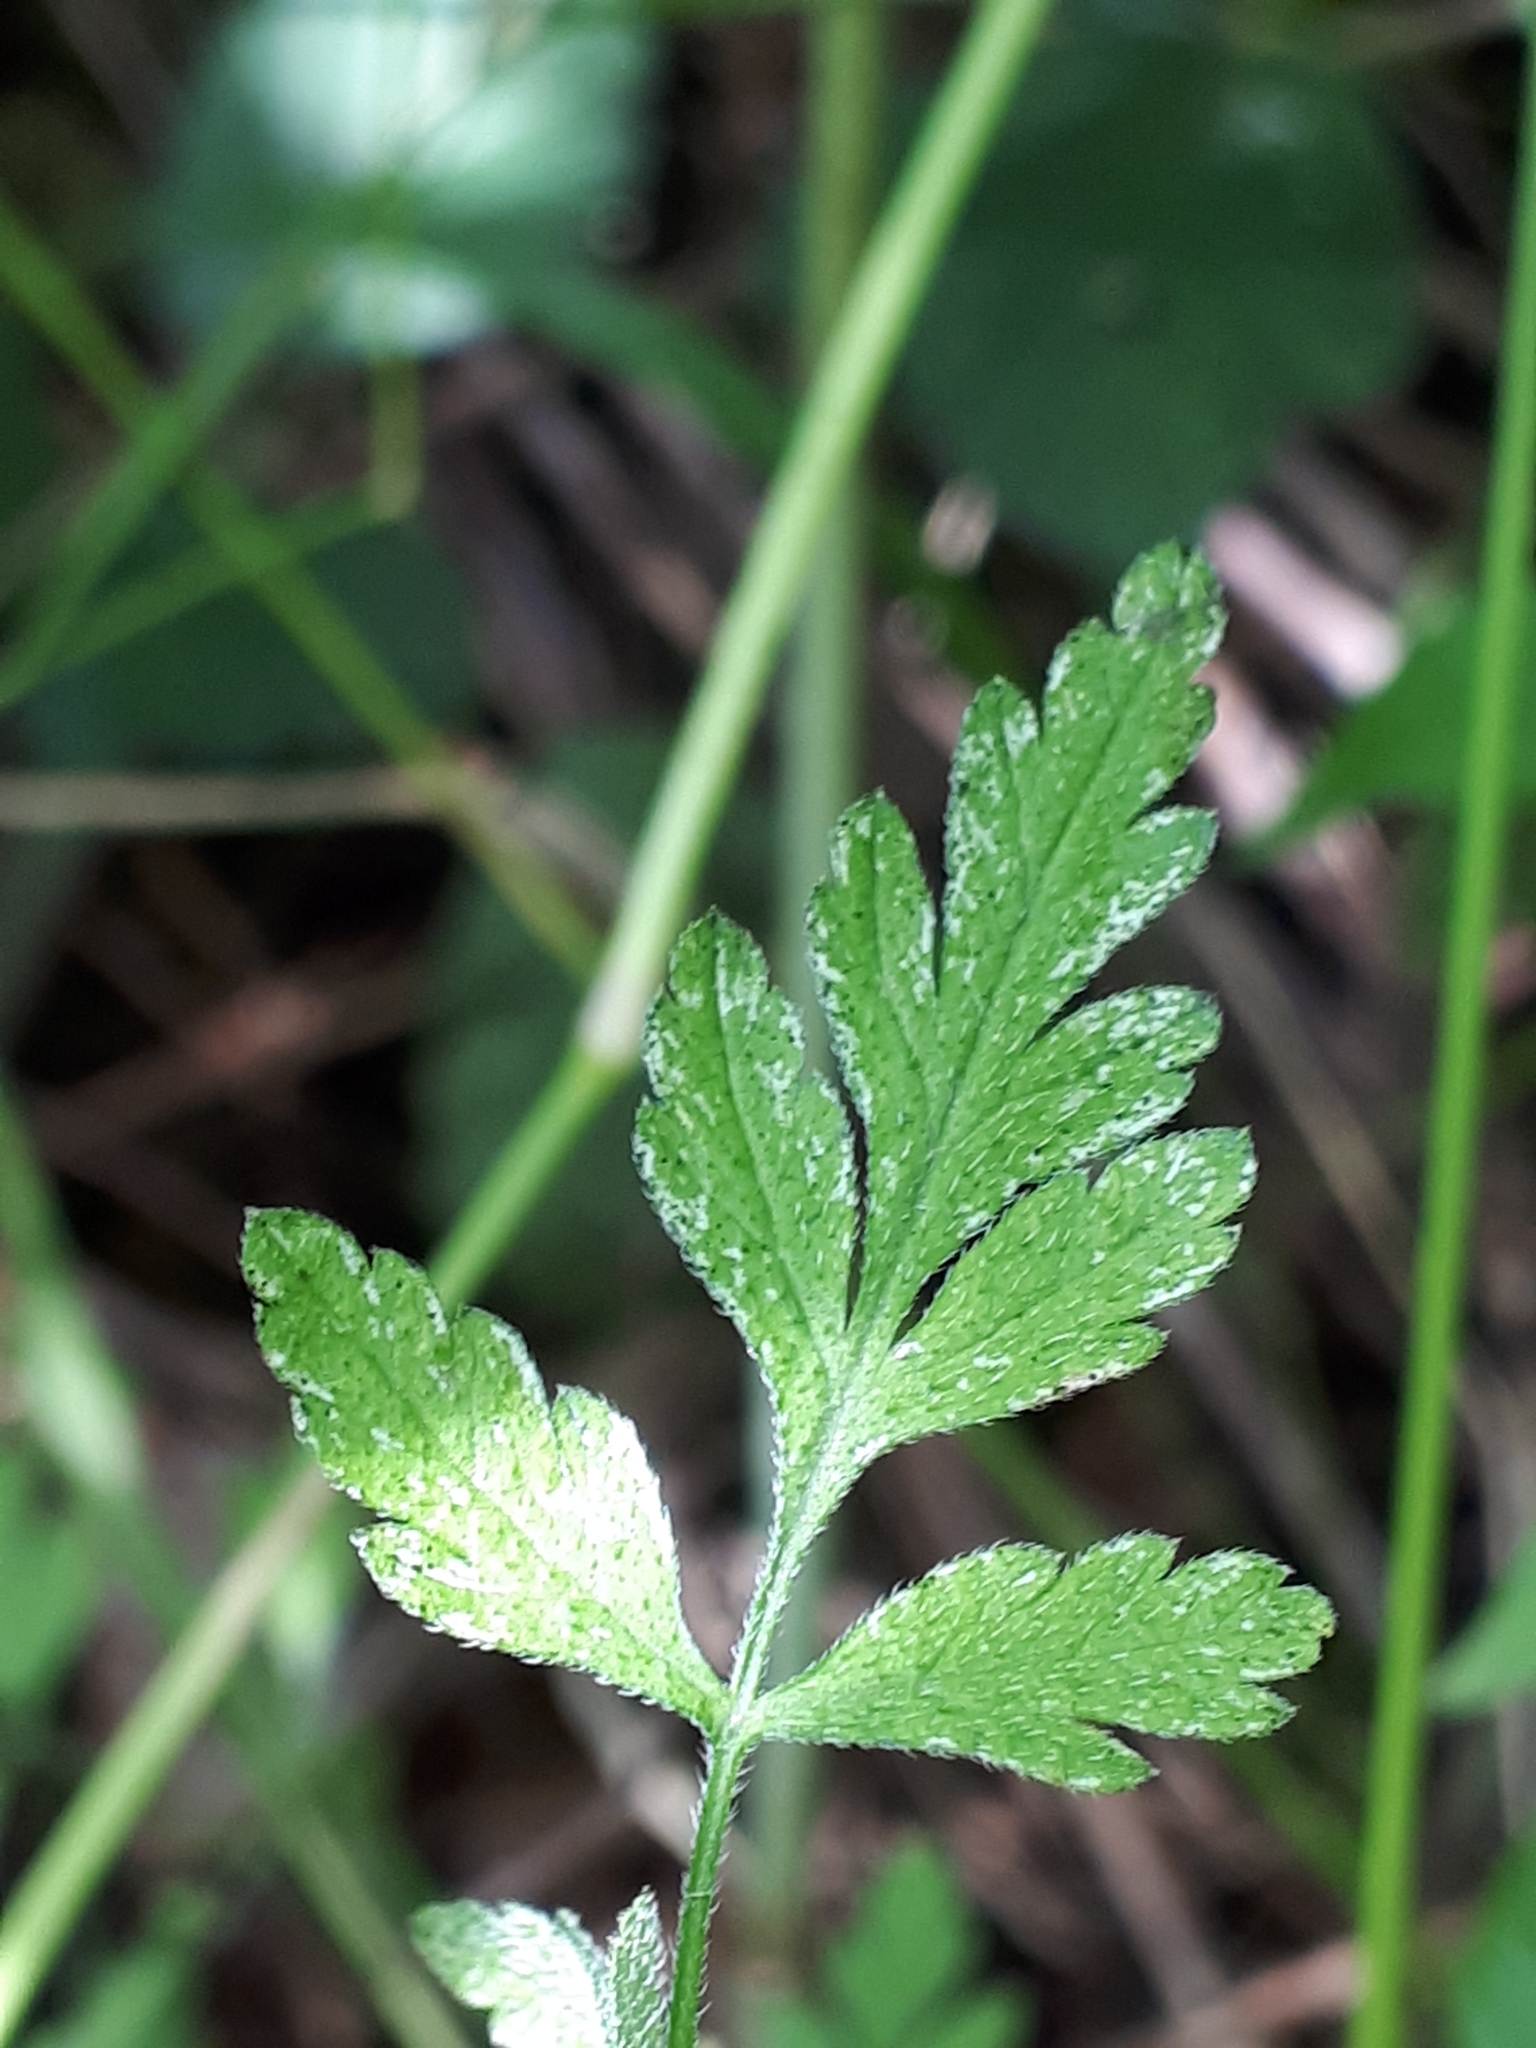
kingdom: Plantae
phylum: Tracheophyta
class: Magnoliopsida
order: Apiales
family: Apiaceae
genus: Chaerophyllum
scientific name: Chaerophyllum temulum
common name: Rough chervil
